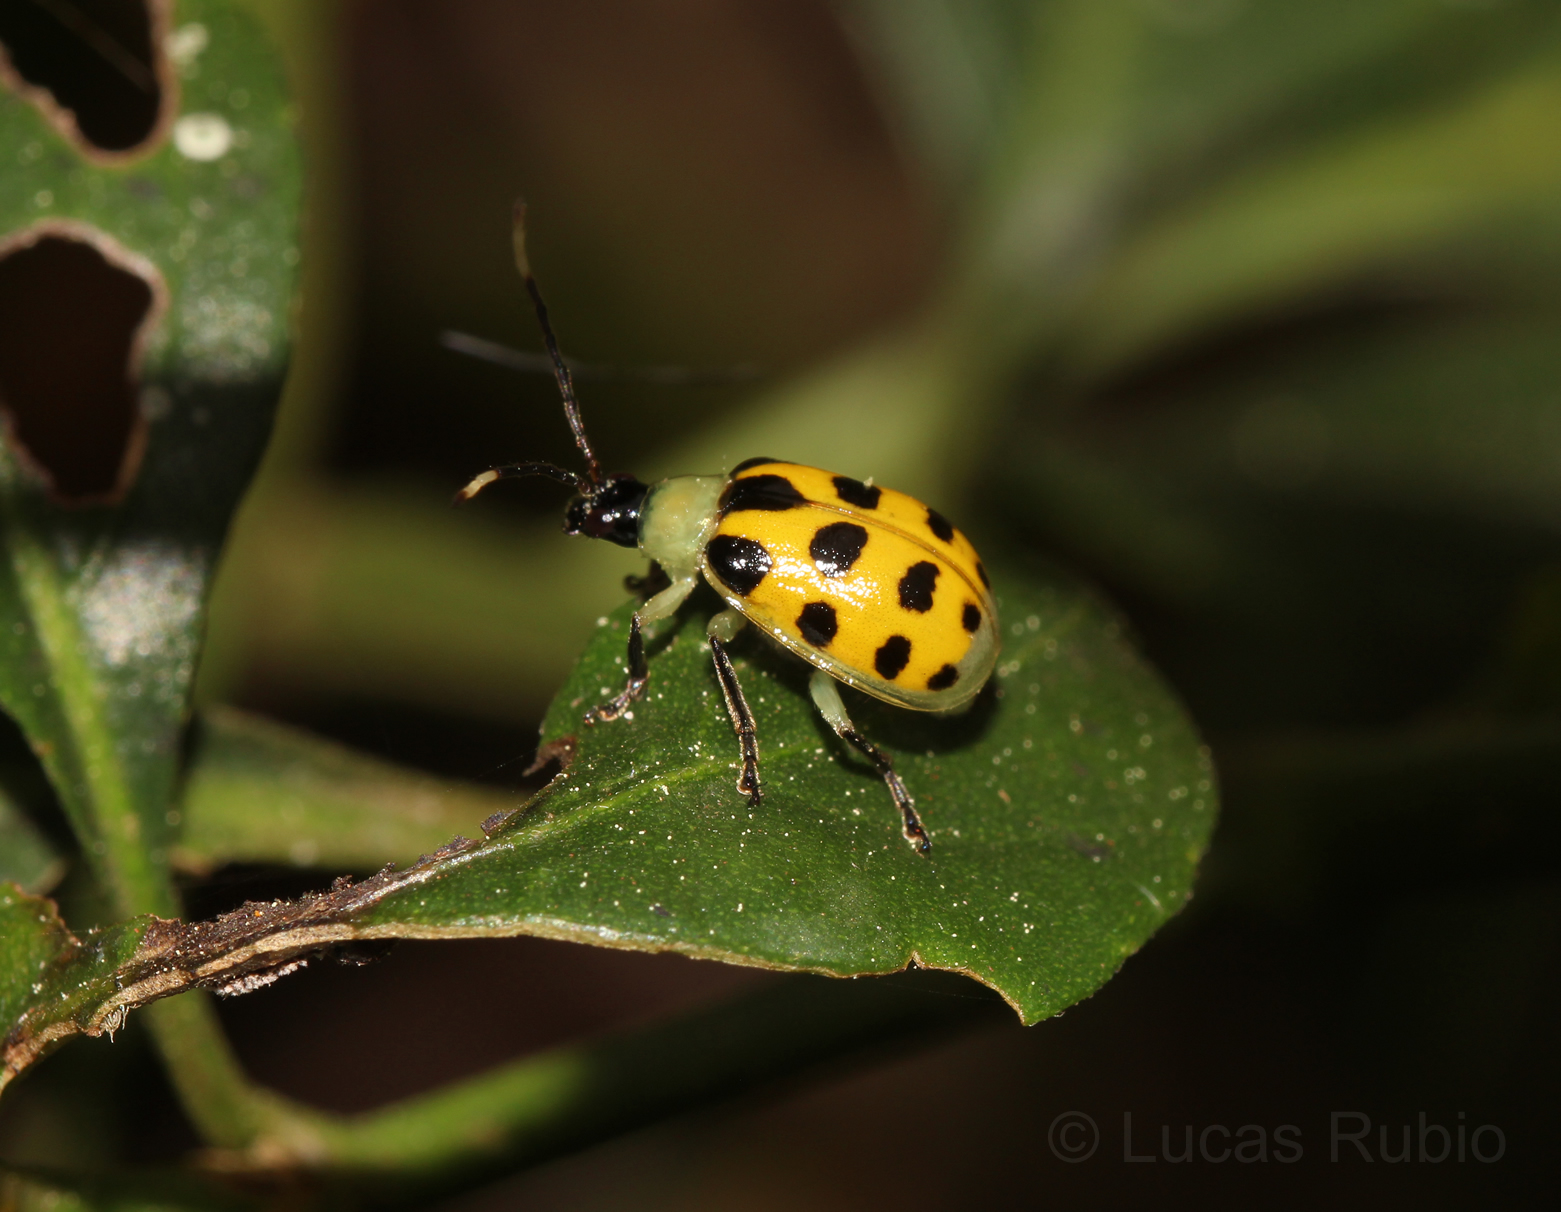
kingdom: Animalia
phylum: Arthropoda
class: Insecta
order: Coleoptera
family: Chrysomelidae
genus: Diabrotica
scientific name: Diabrotica limitata
